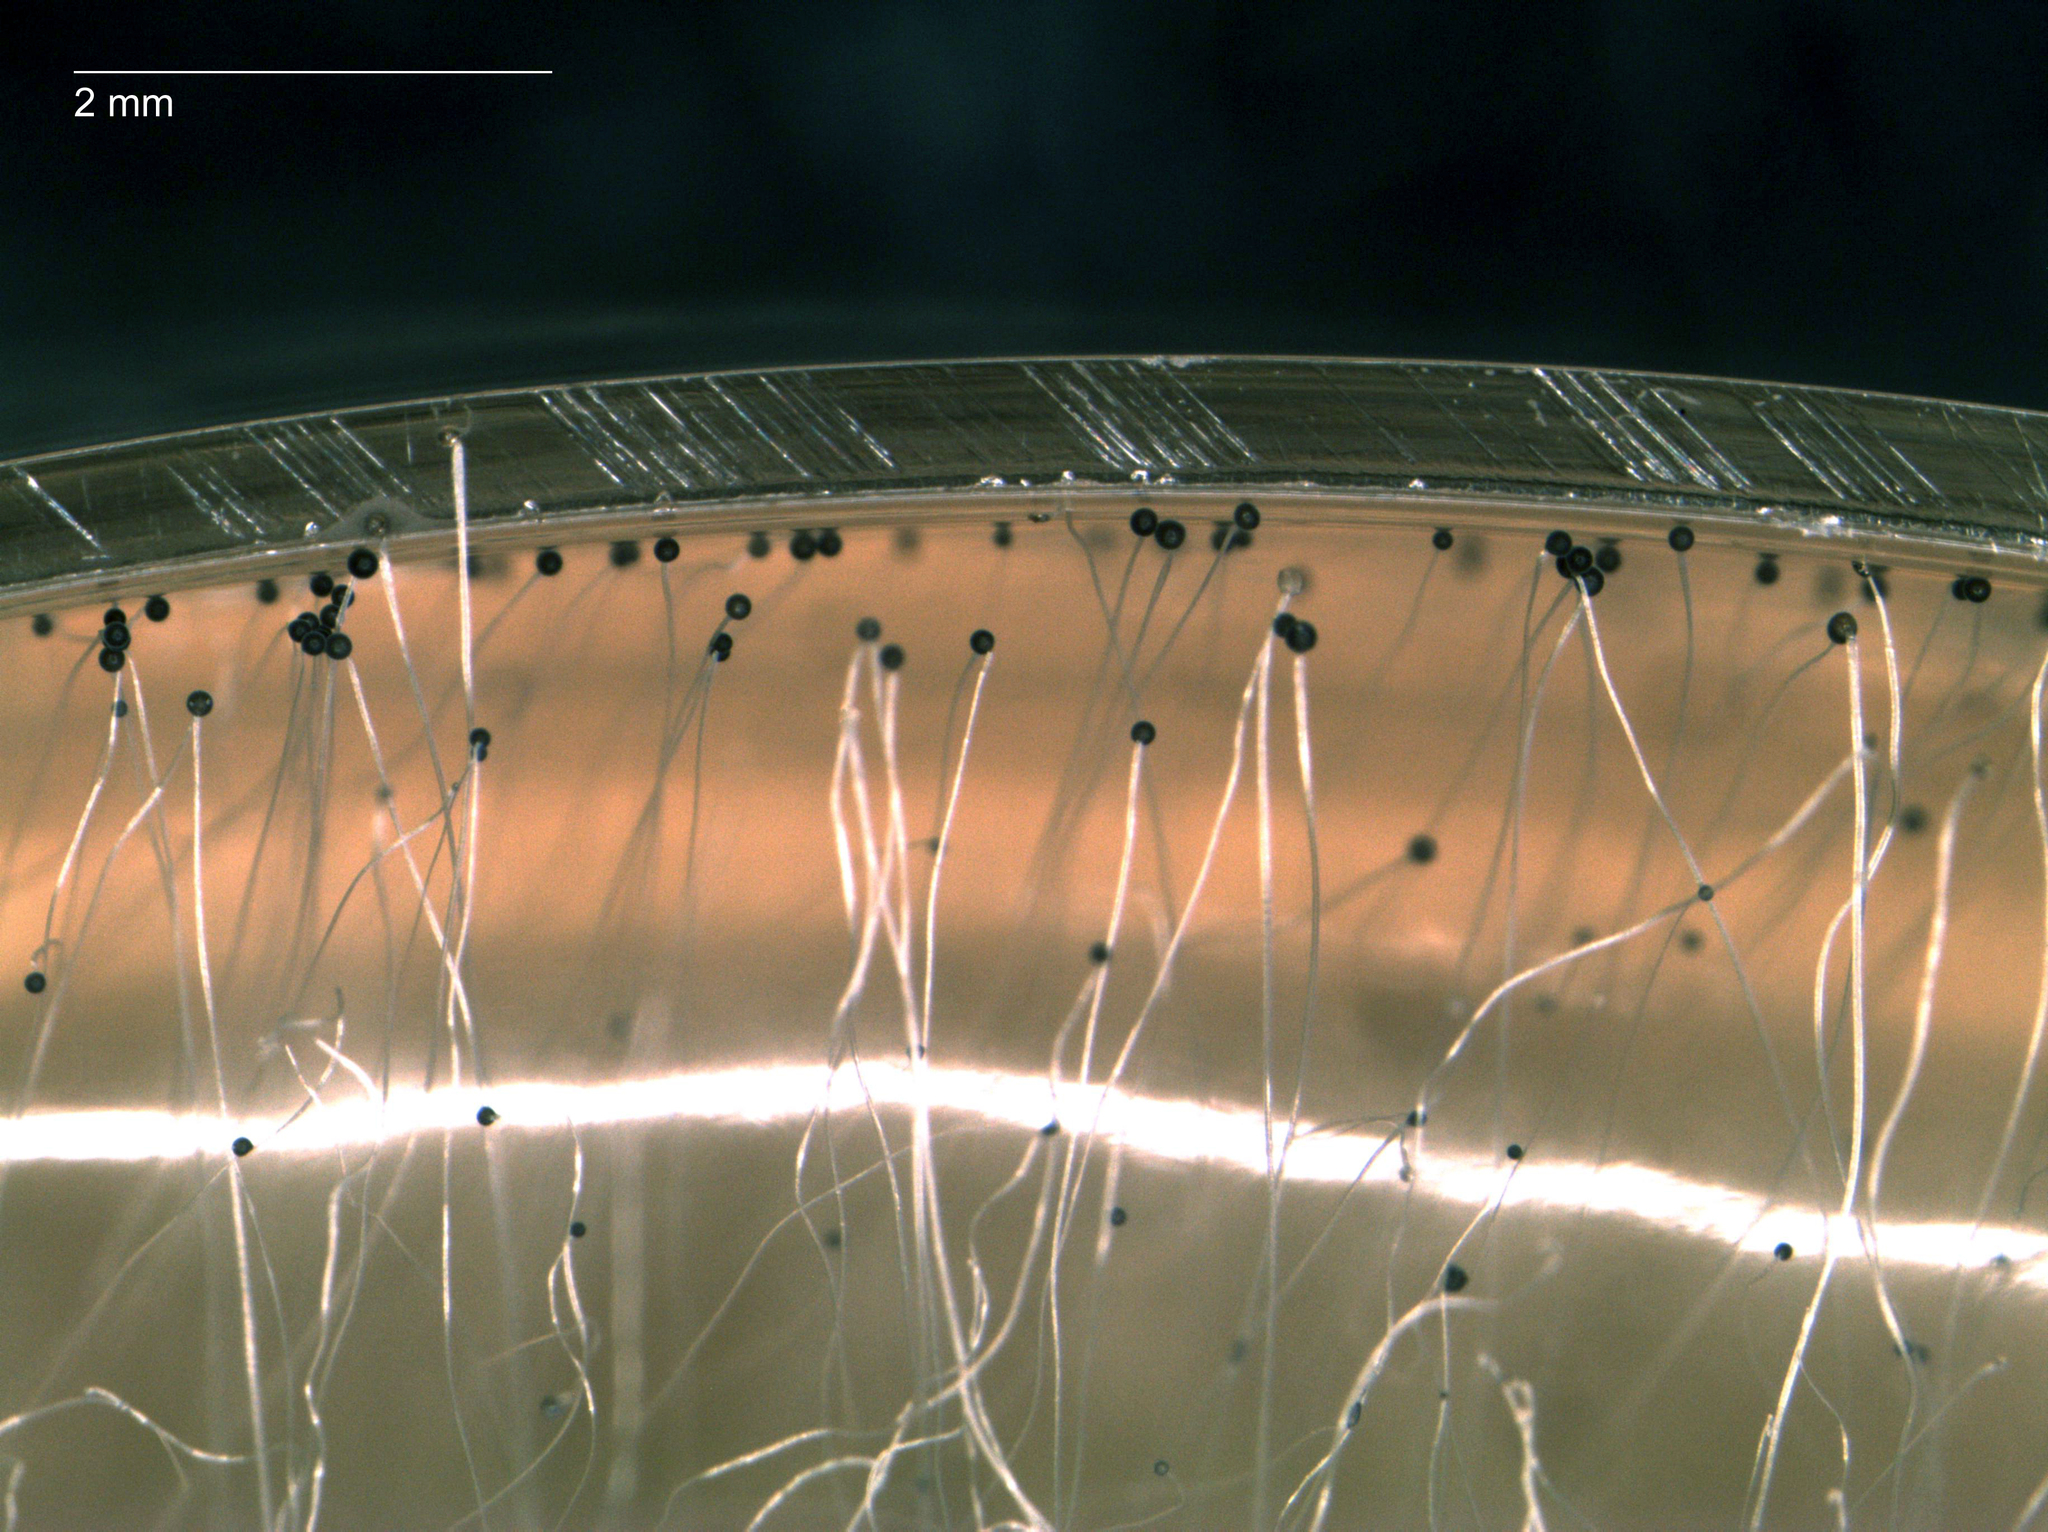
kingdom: Fungi
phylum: Mucoromycota
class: Mucoromycetes
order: Mucorales
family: Mucoraceae
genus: Mucor
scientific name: Mucor
